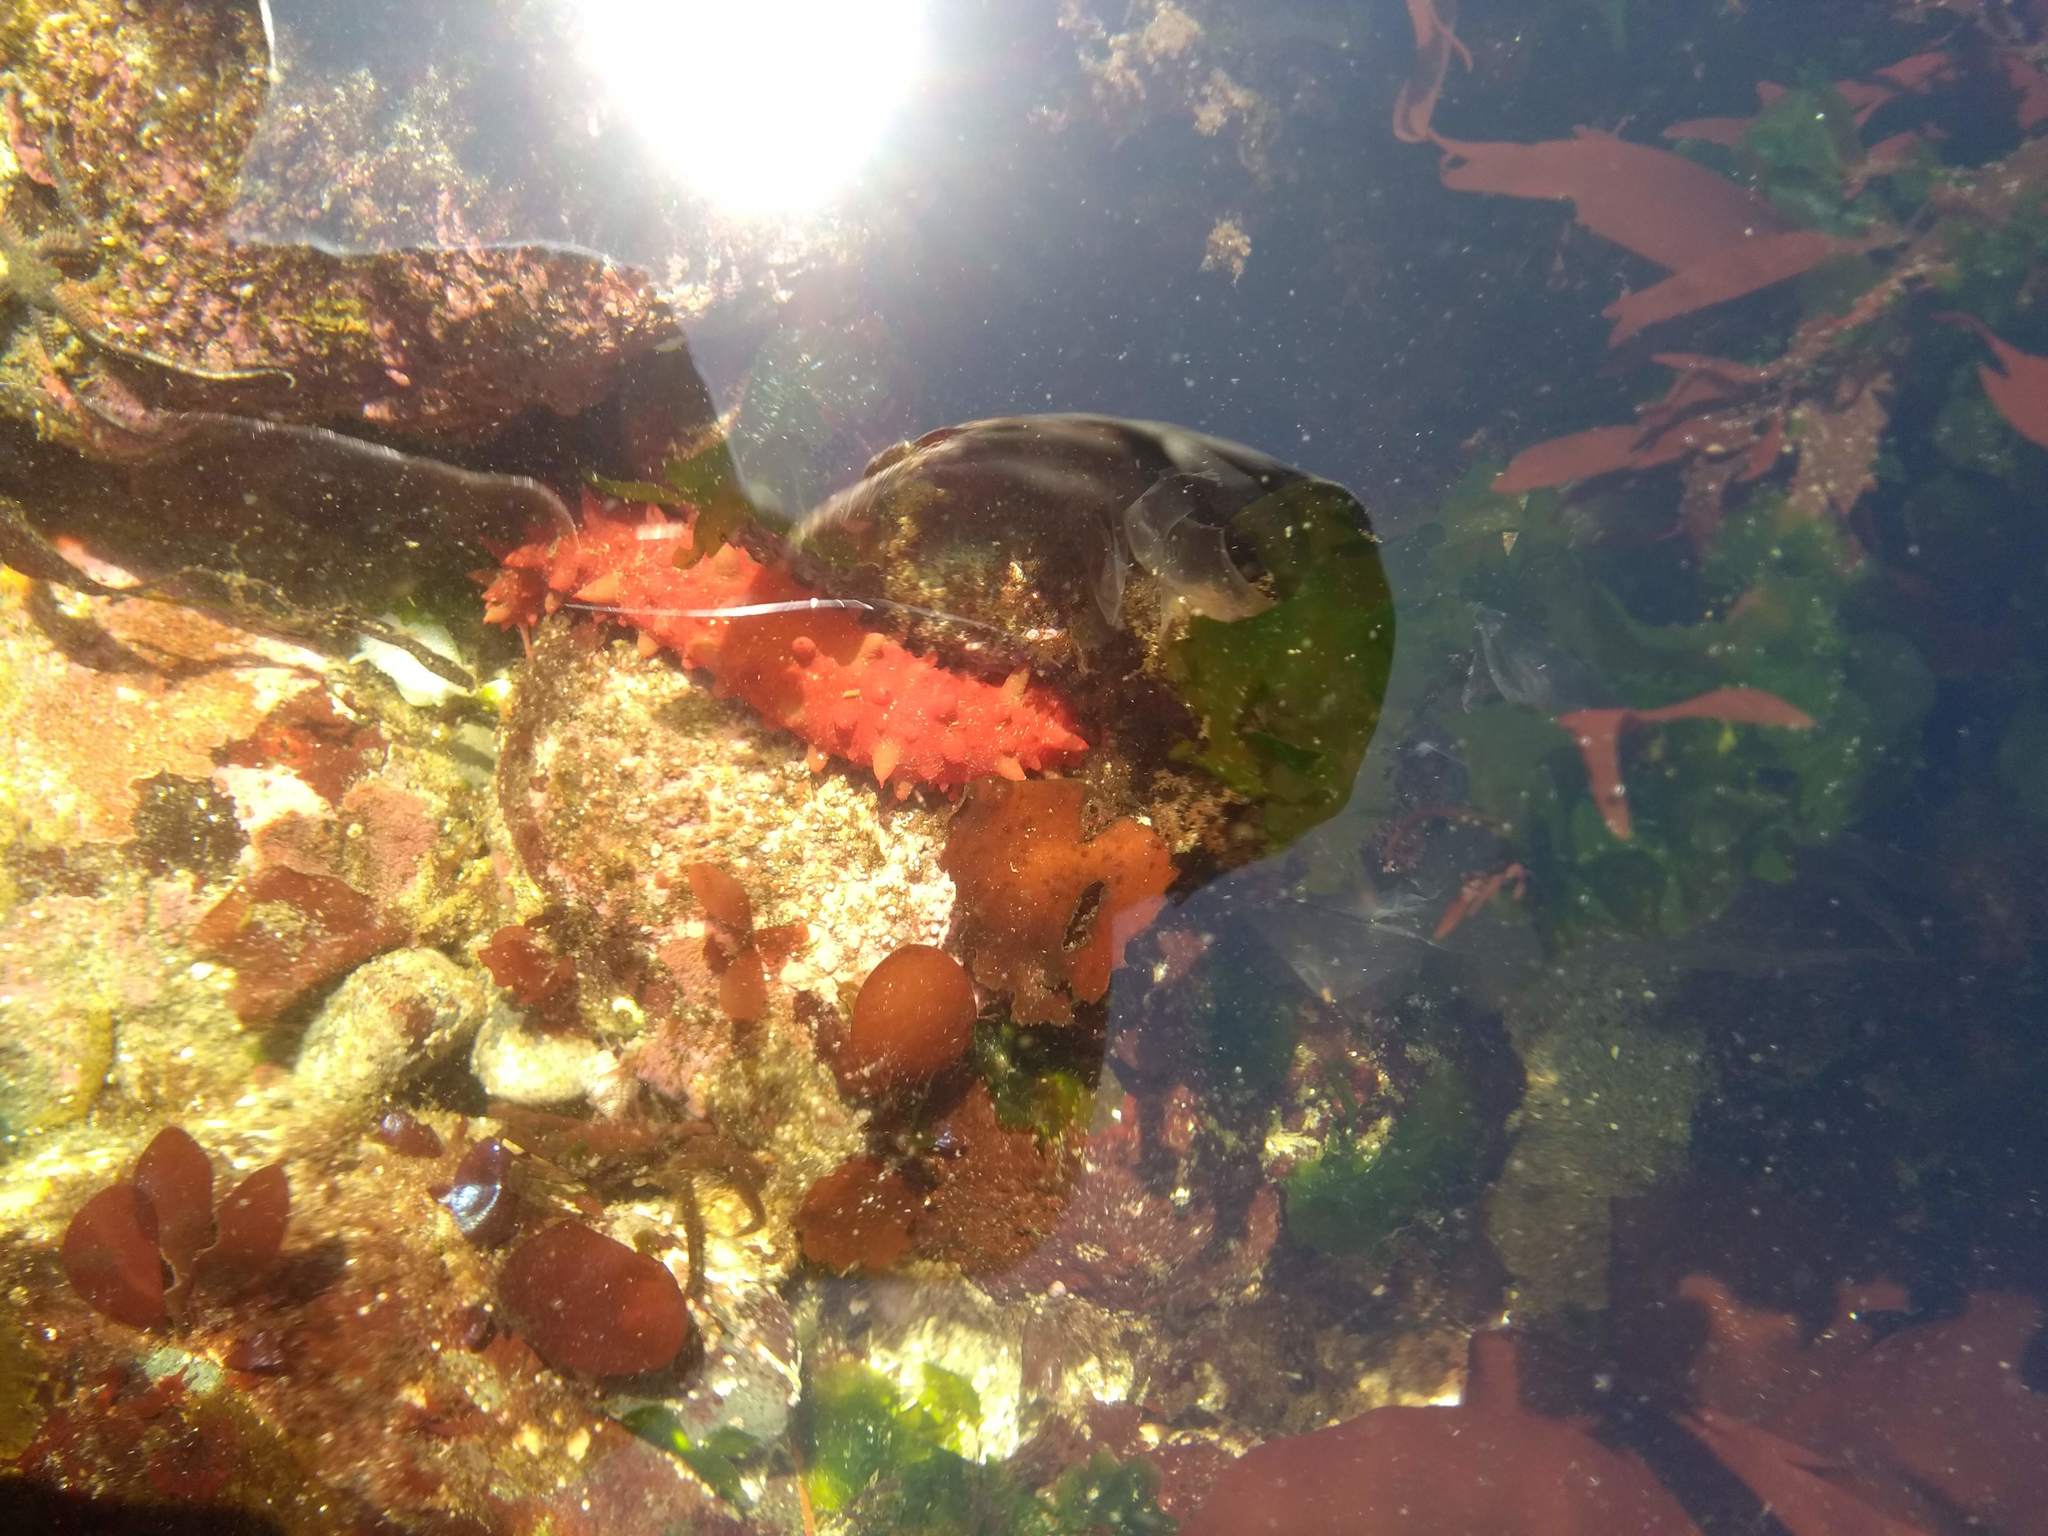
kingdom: Animalia
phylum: Echinodermata
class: Holothuroidea
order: Synallactida
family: Stichopodidae
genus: Apostichopus
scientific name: Apostichopus californicus
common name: California sea cucumber
